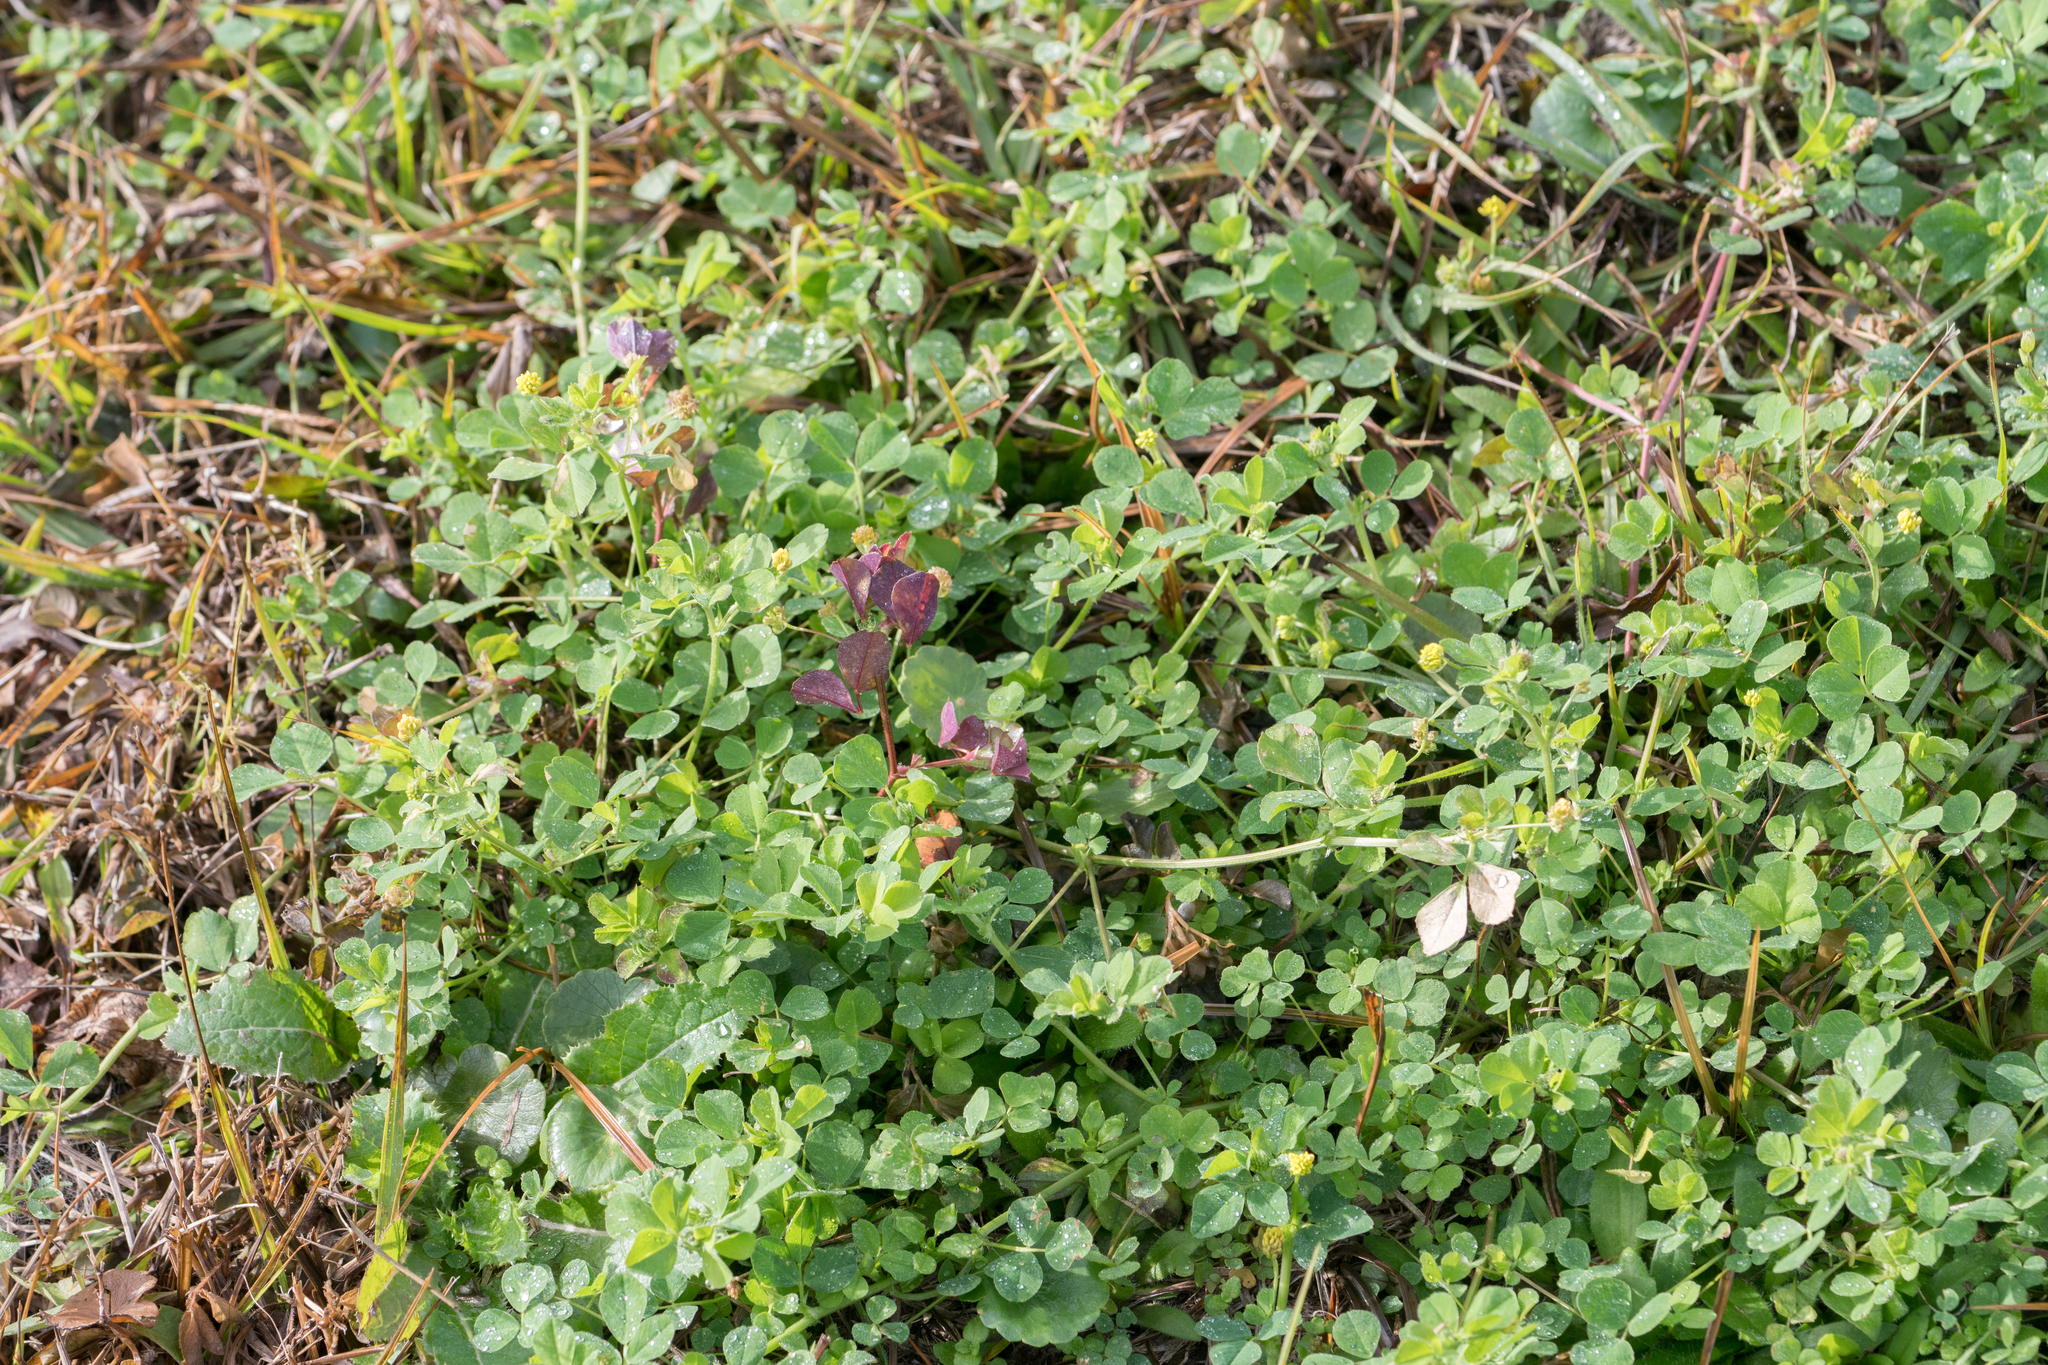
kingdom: Plantae
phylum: Tracheophyta
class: Magnoliopsida
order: Fabales
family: Fabaceae
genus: Medicago
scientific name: Medicago lupulina
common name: Black medick
